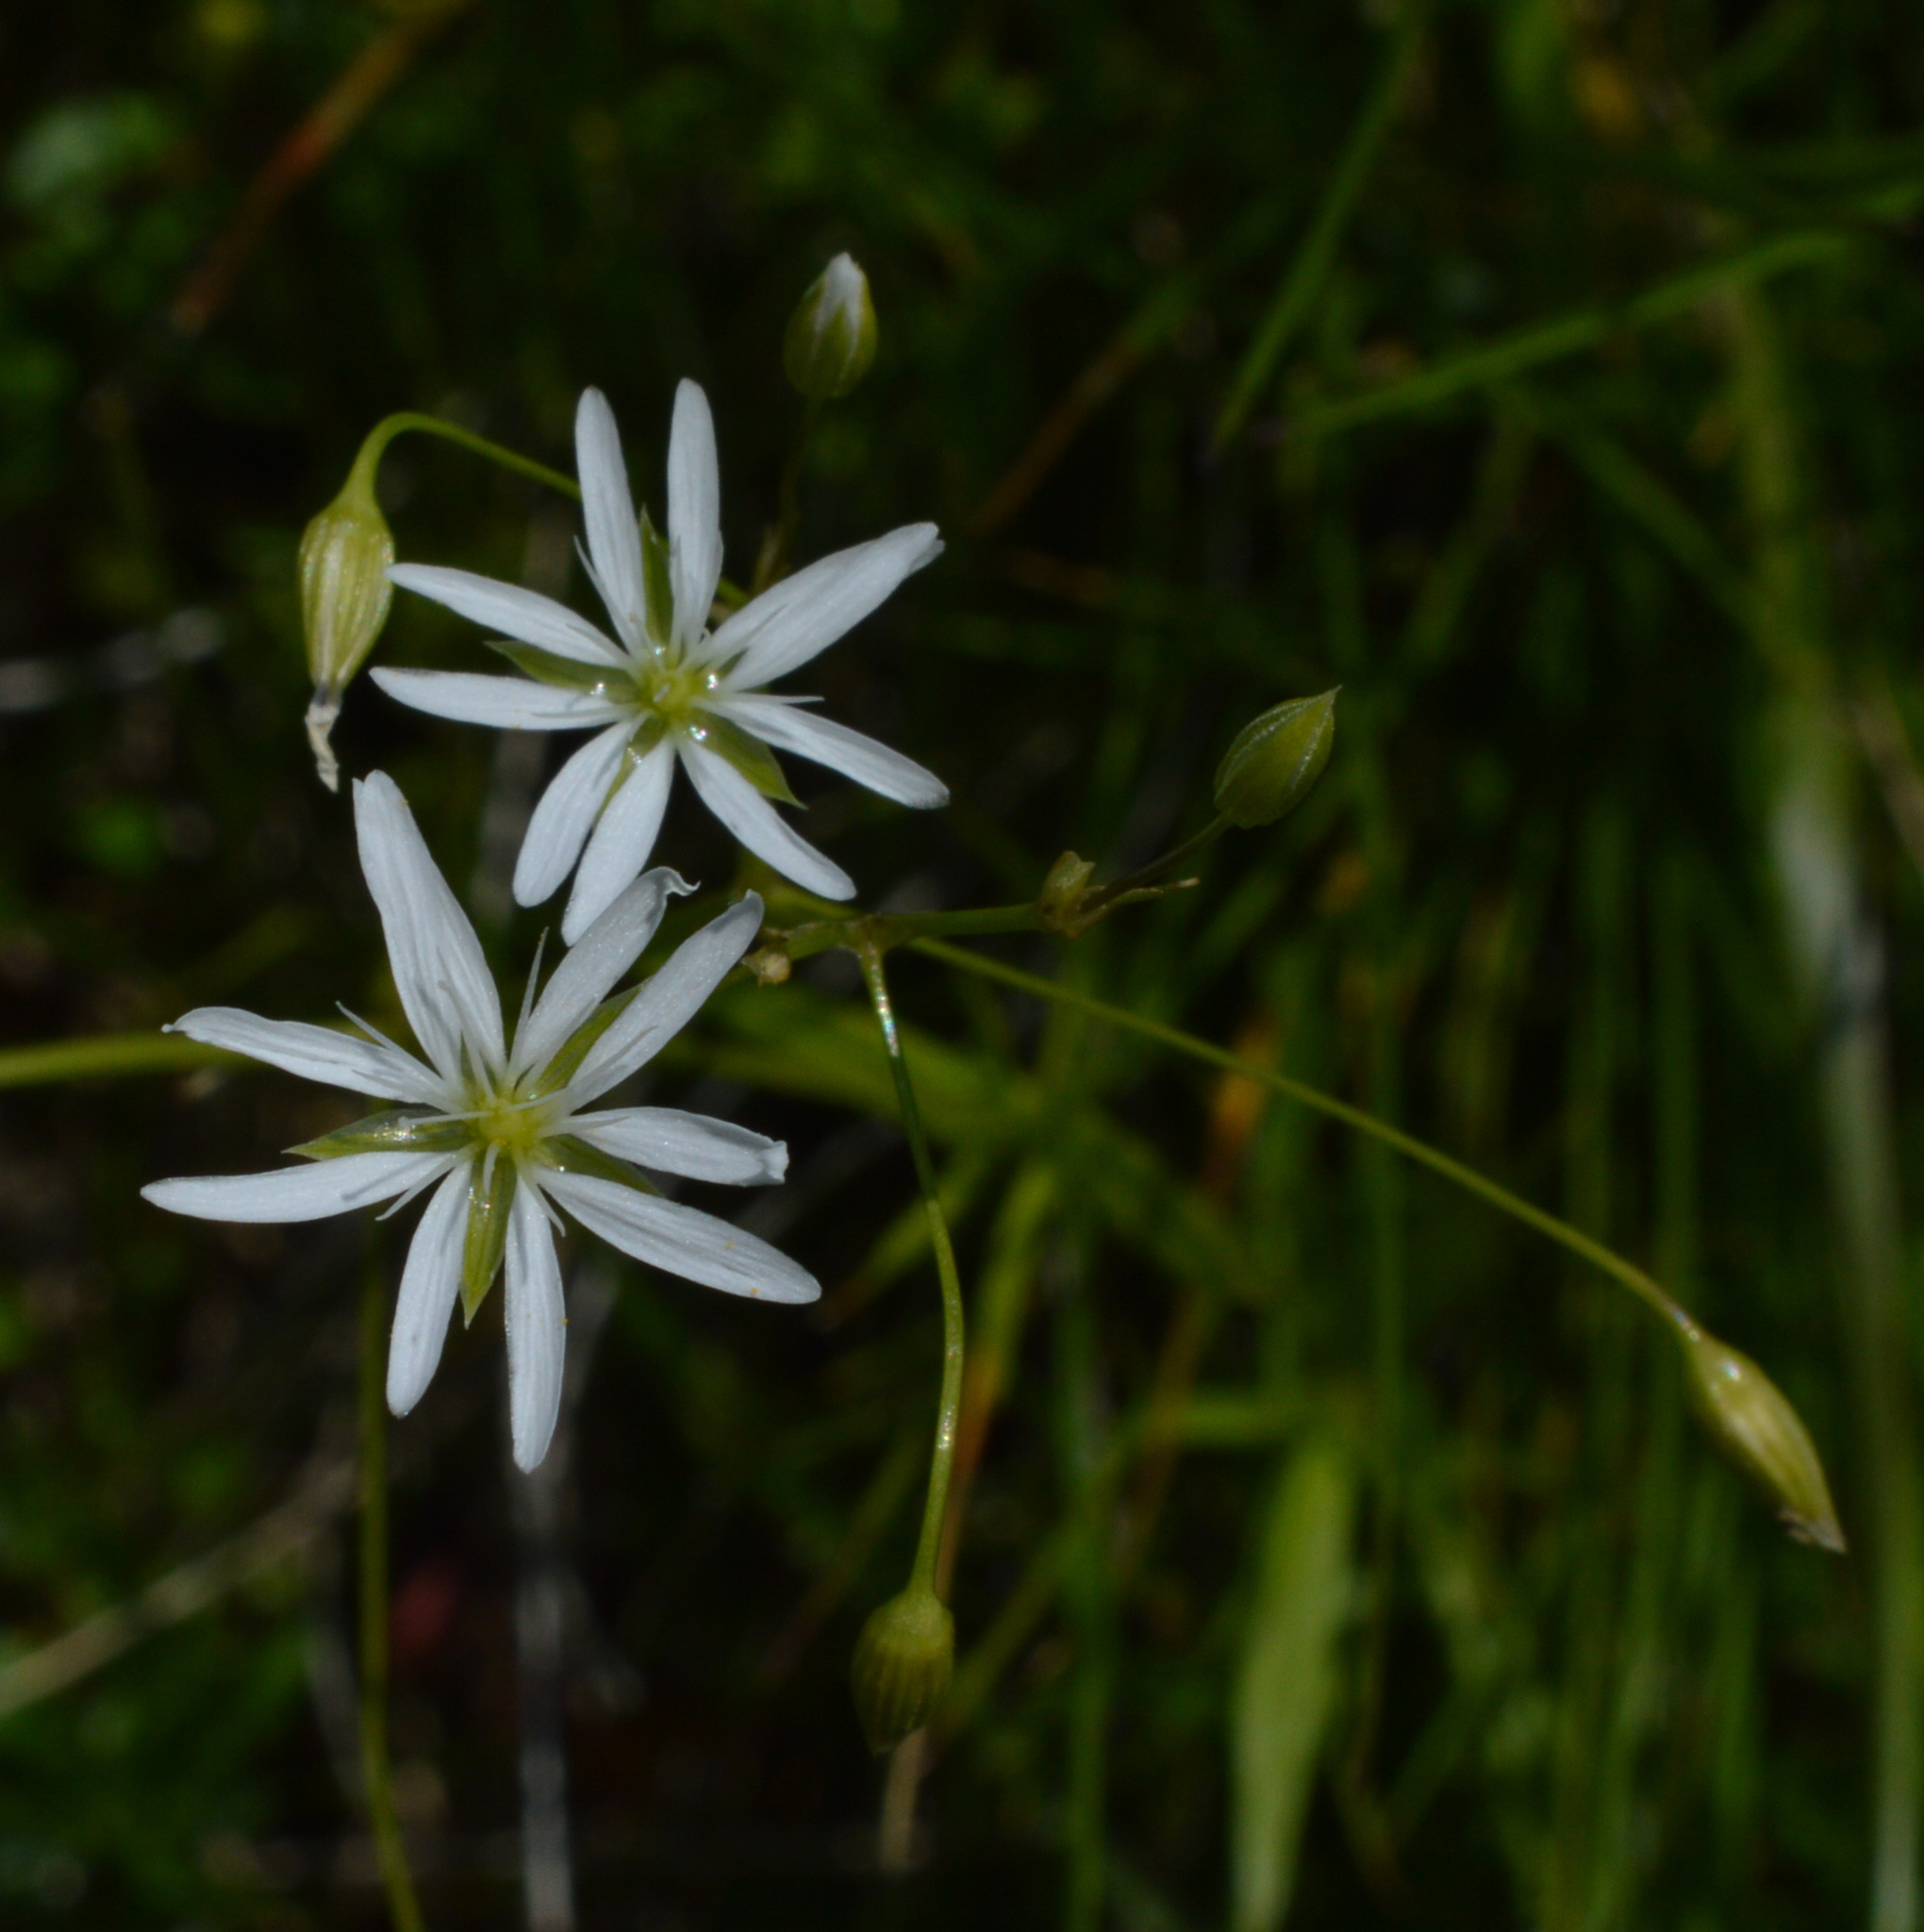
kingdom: Plantae
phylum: Tracheophyta
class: Magnoliopsida
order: Caryophyllales
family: Caryophyllaceae
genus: Stellaria
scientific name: Stellaria nemorum
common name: Wood stitchwort
